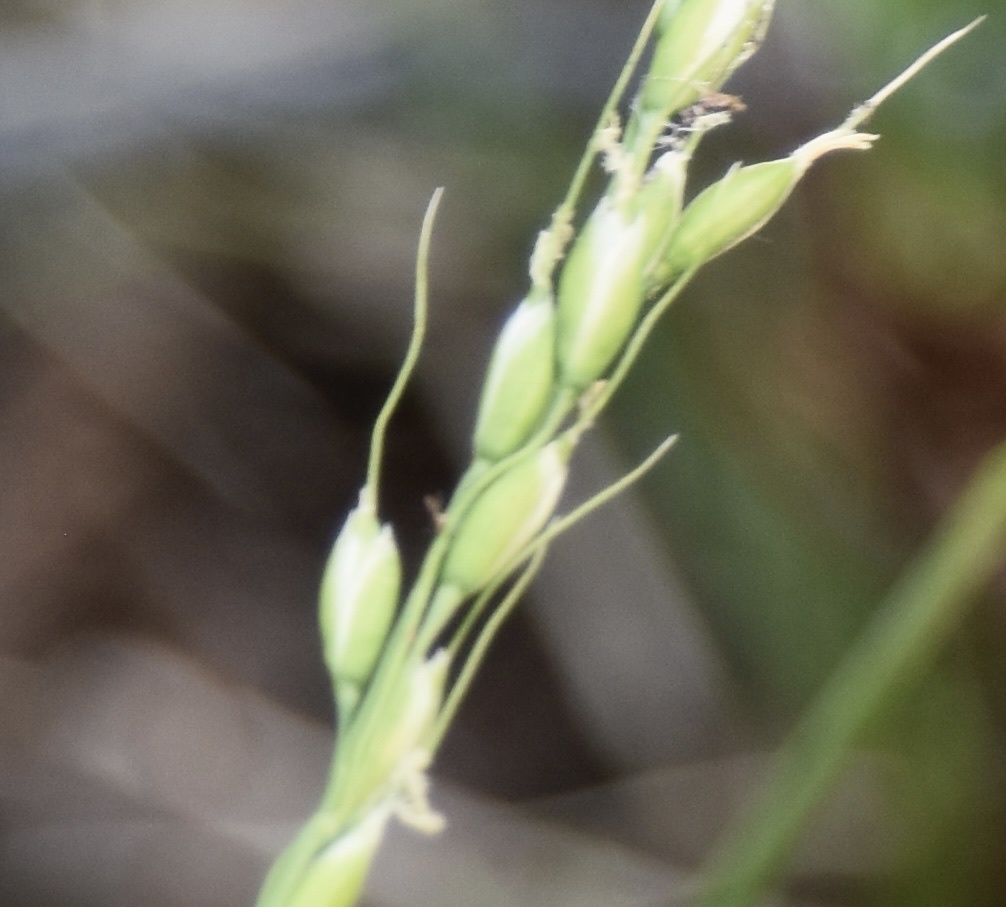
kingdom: Plantae
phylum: Tracheophyta
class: Liliopsida
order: Poales
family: Poaceae
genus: Oryzopsis
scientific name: Oryzopsis asperifolia
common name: Rough-leaved mountain rice
